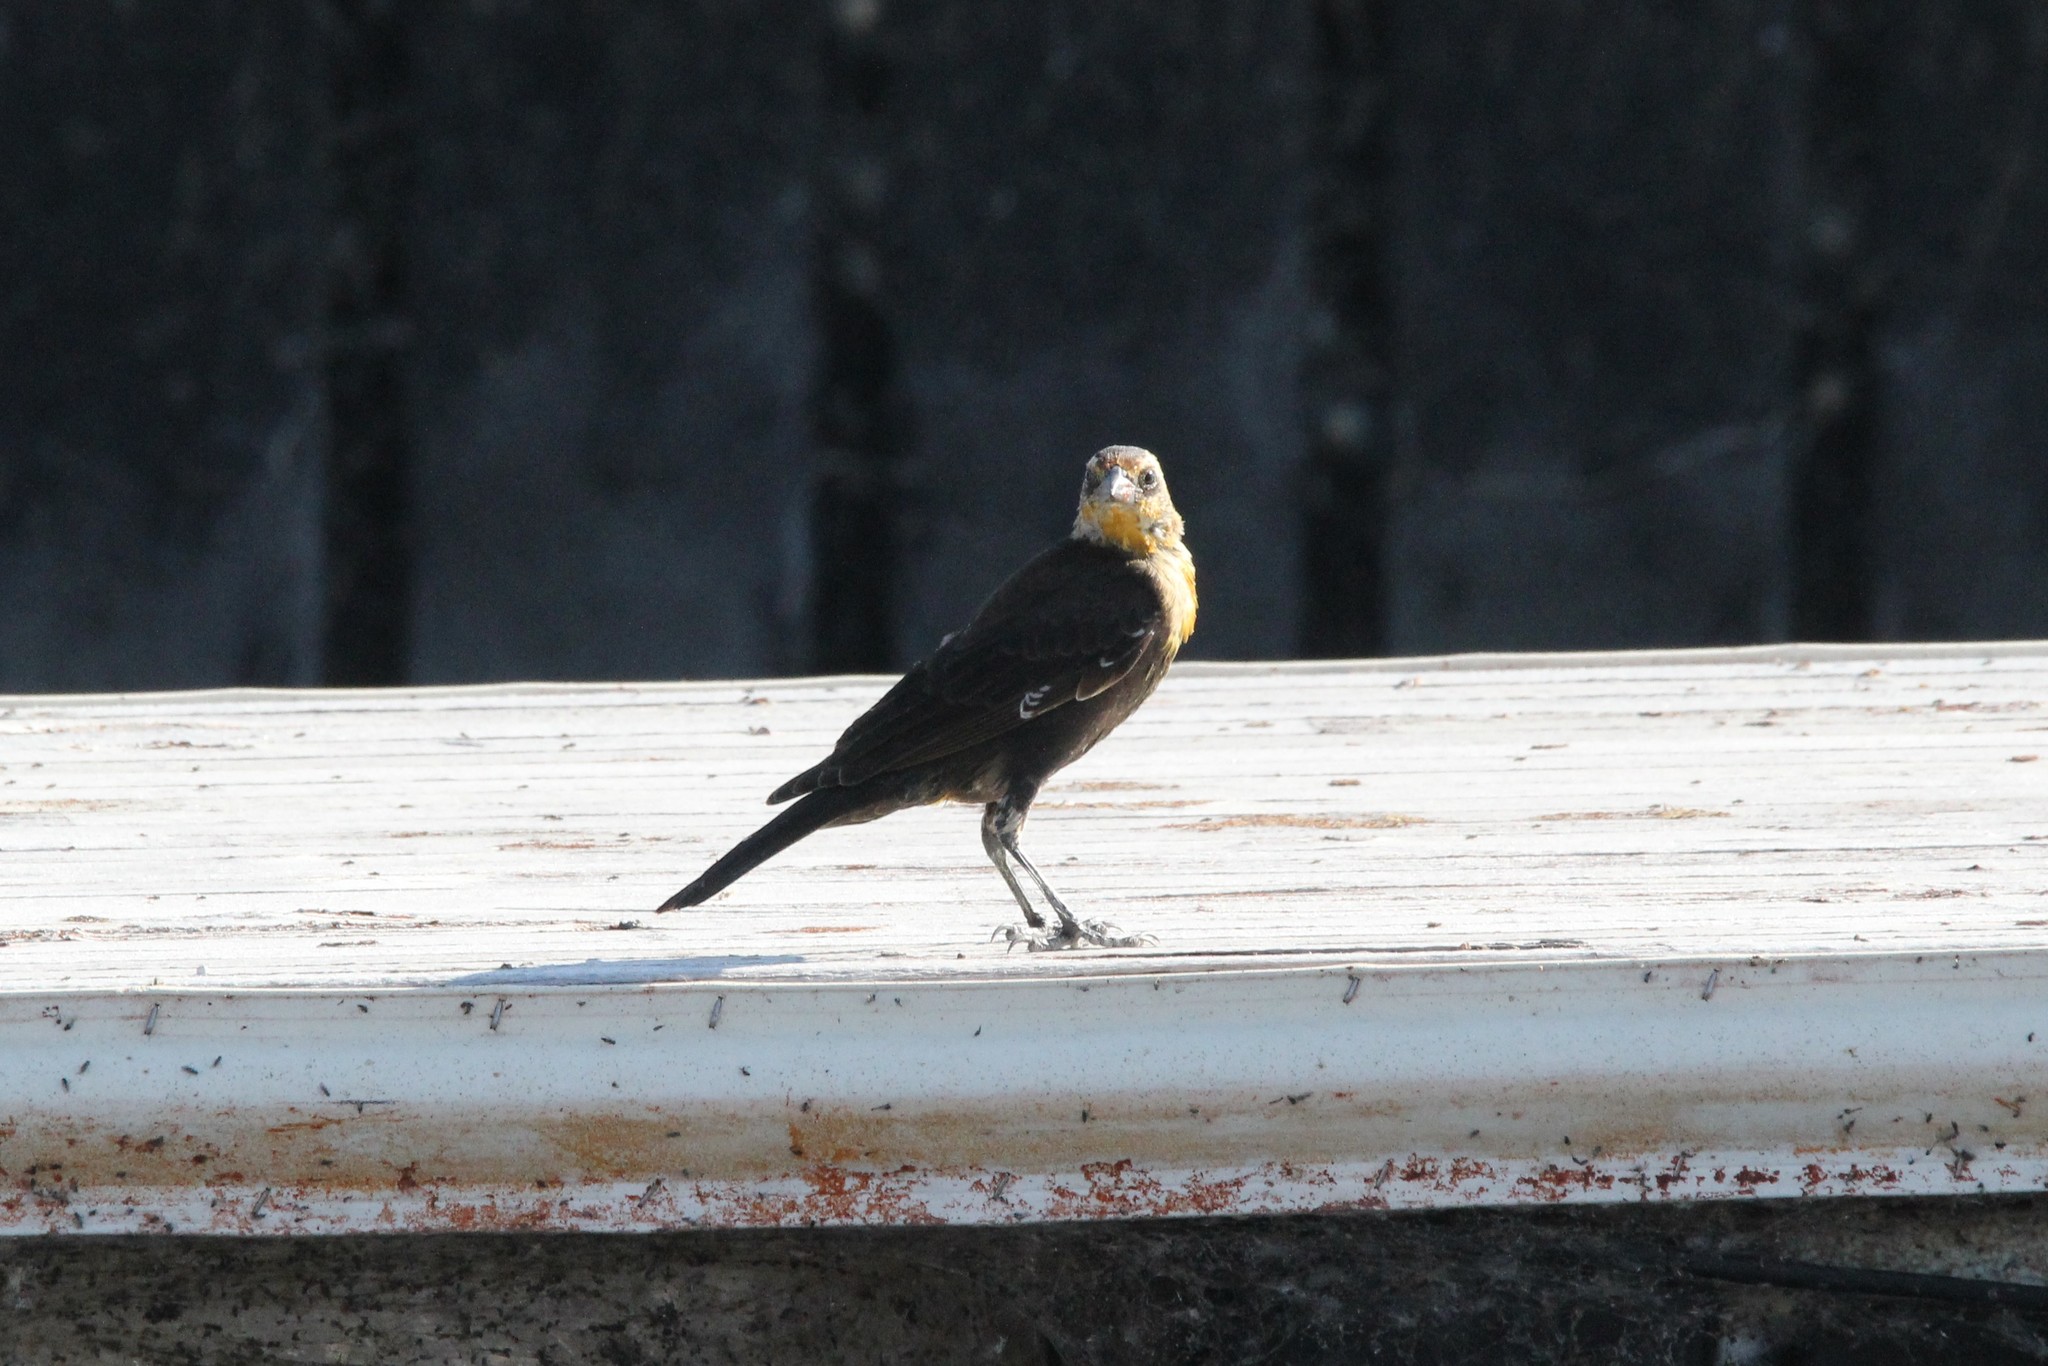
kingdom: Animalia
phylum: Chordata
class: Aves
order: Passeriformes
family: Icteridae
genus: Xanthocephalus
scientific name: Xanthocephalus xanthocephalus
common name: Yellow-headed blackbird
